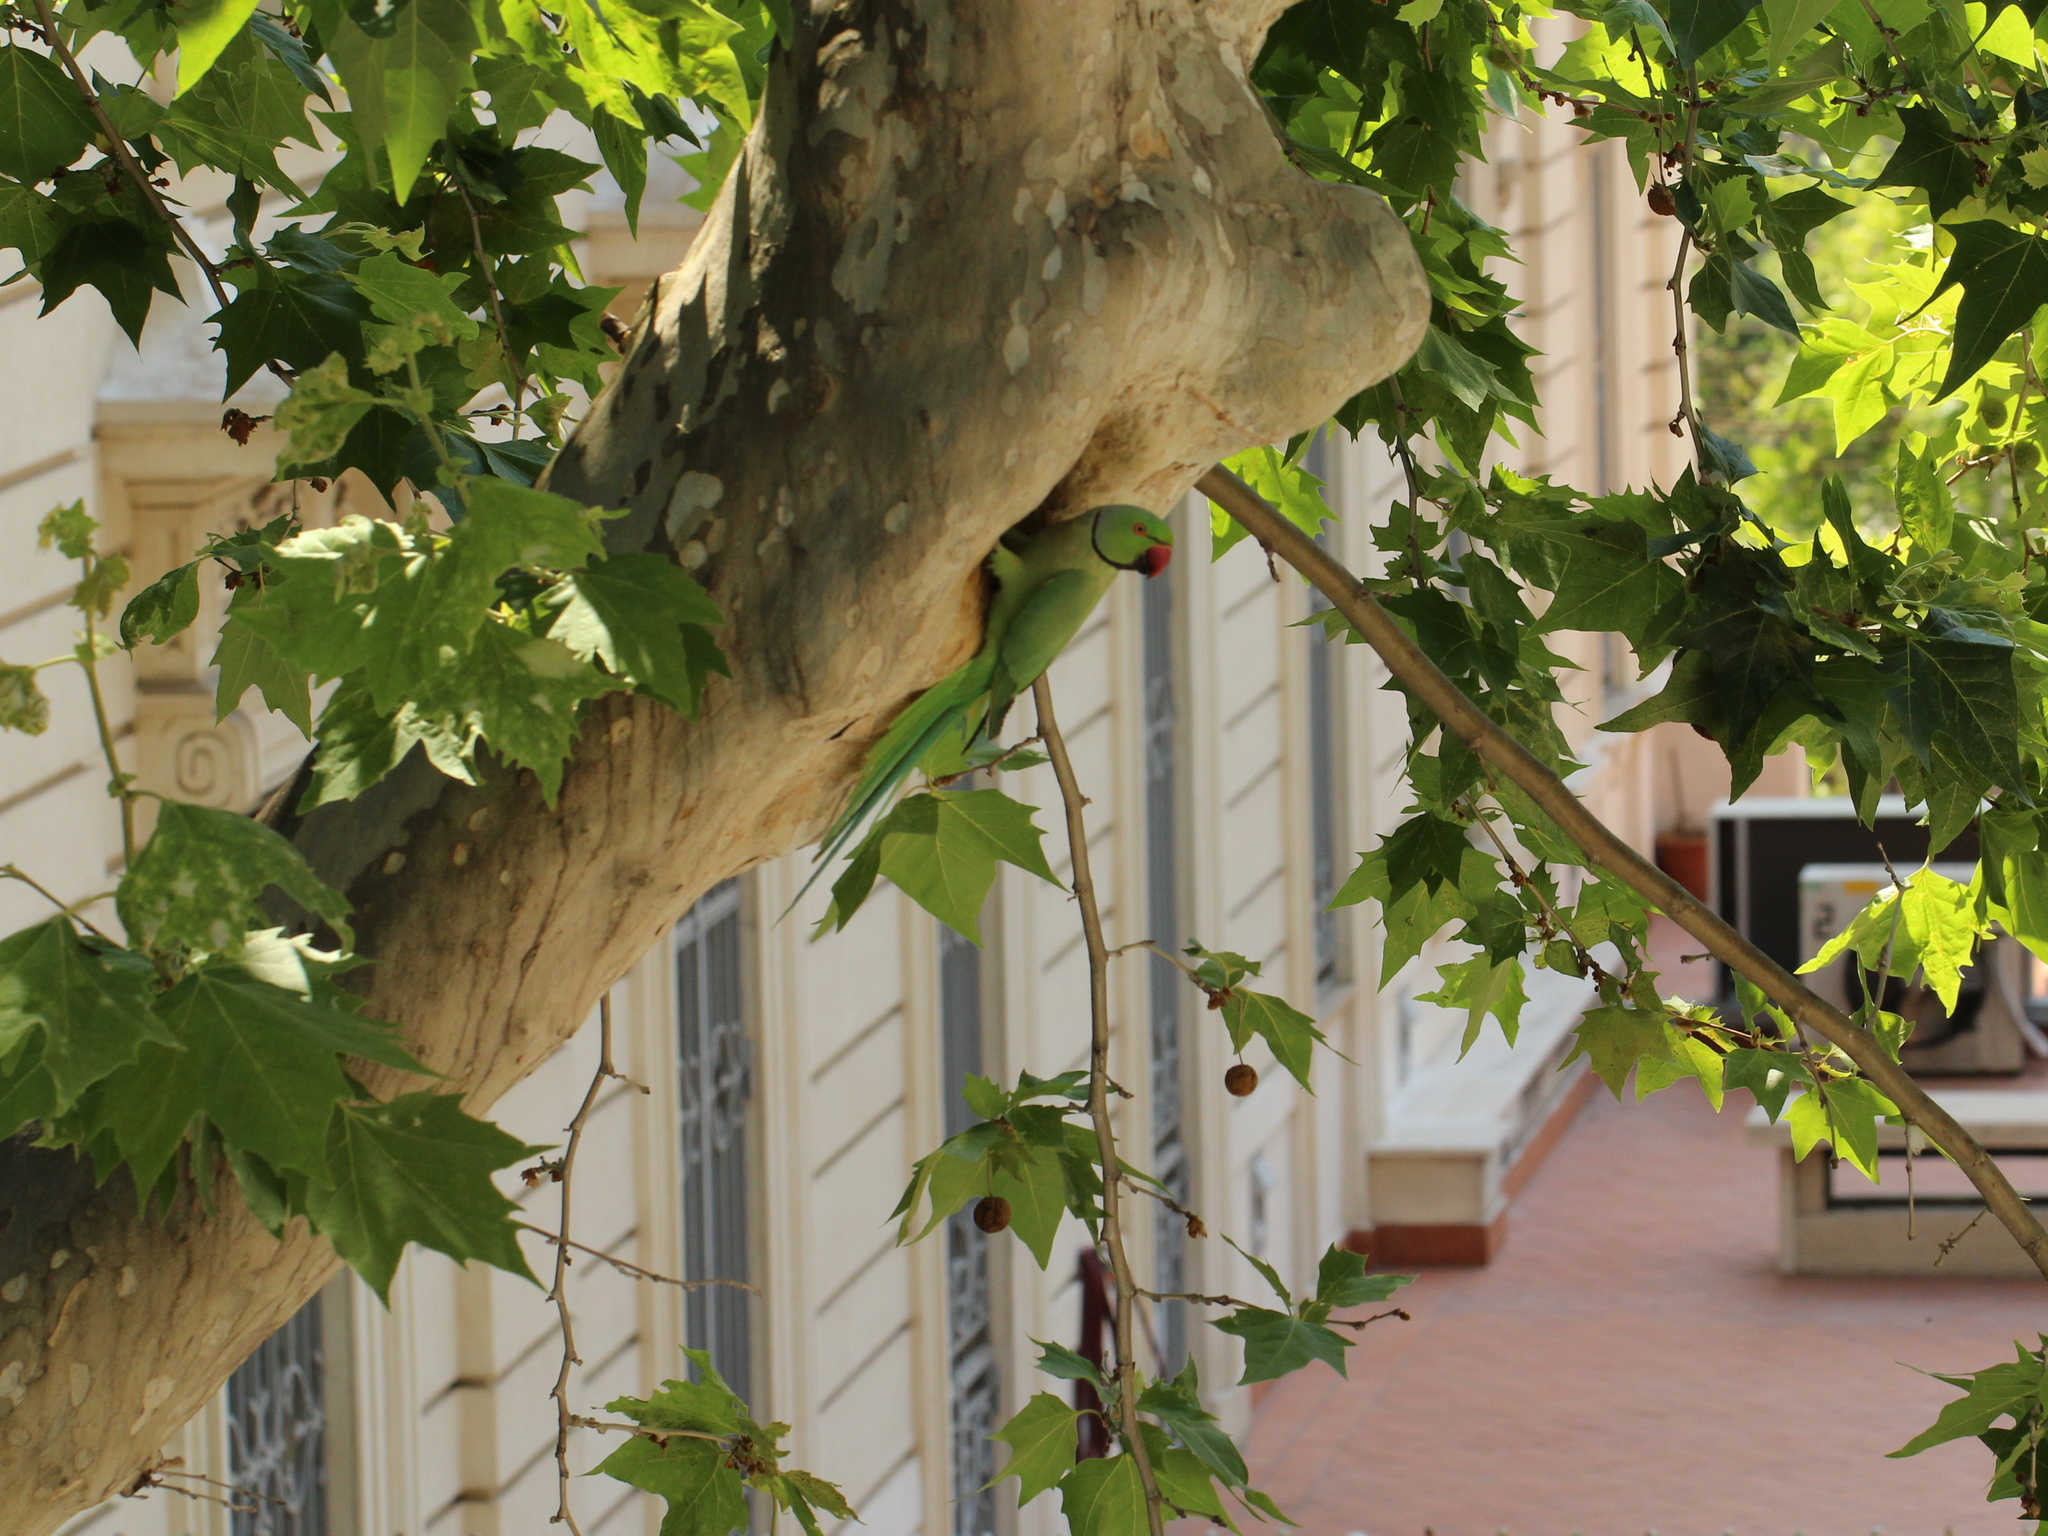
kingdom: Animalia
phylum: Chordata
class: Aves
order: Psittaciformes
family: Psittacidae
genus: Psittacula
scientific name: Psittacula krameri
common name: Rose-ringed parakeet
